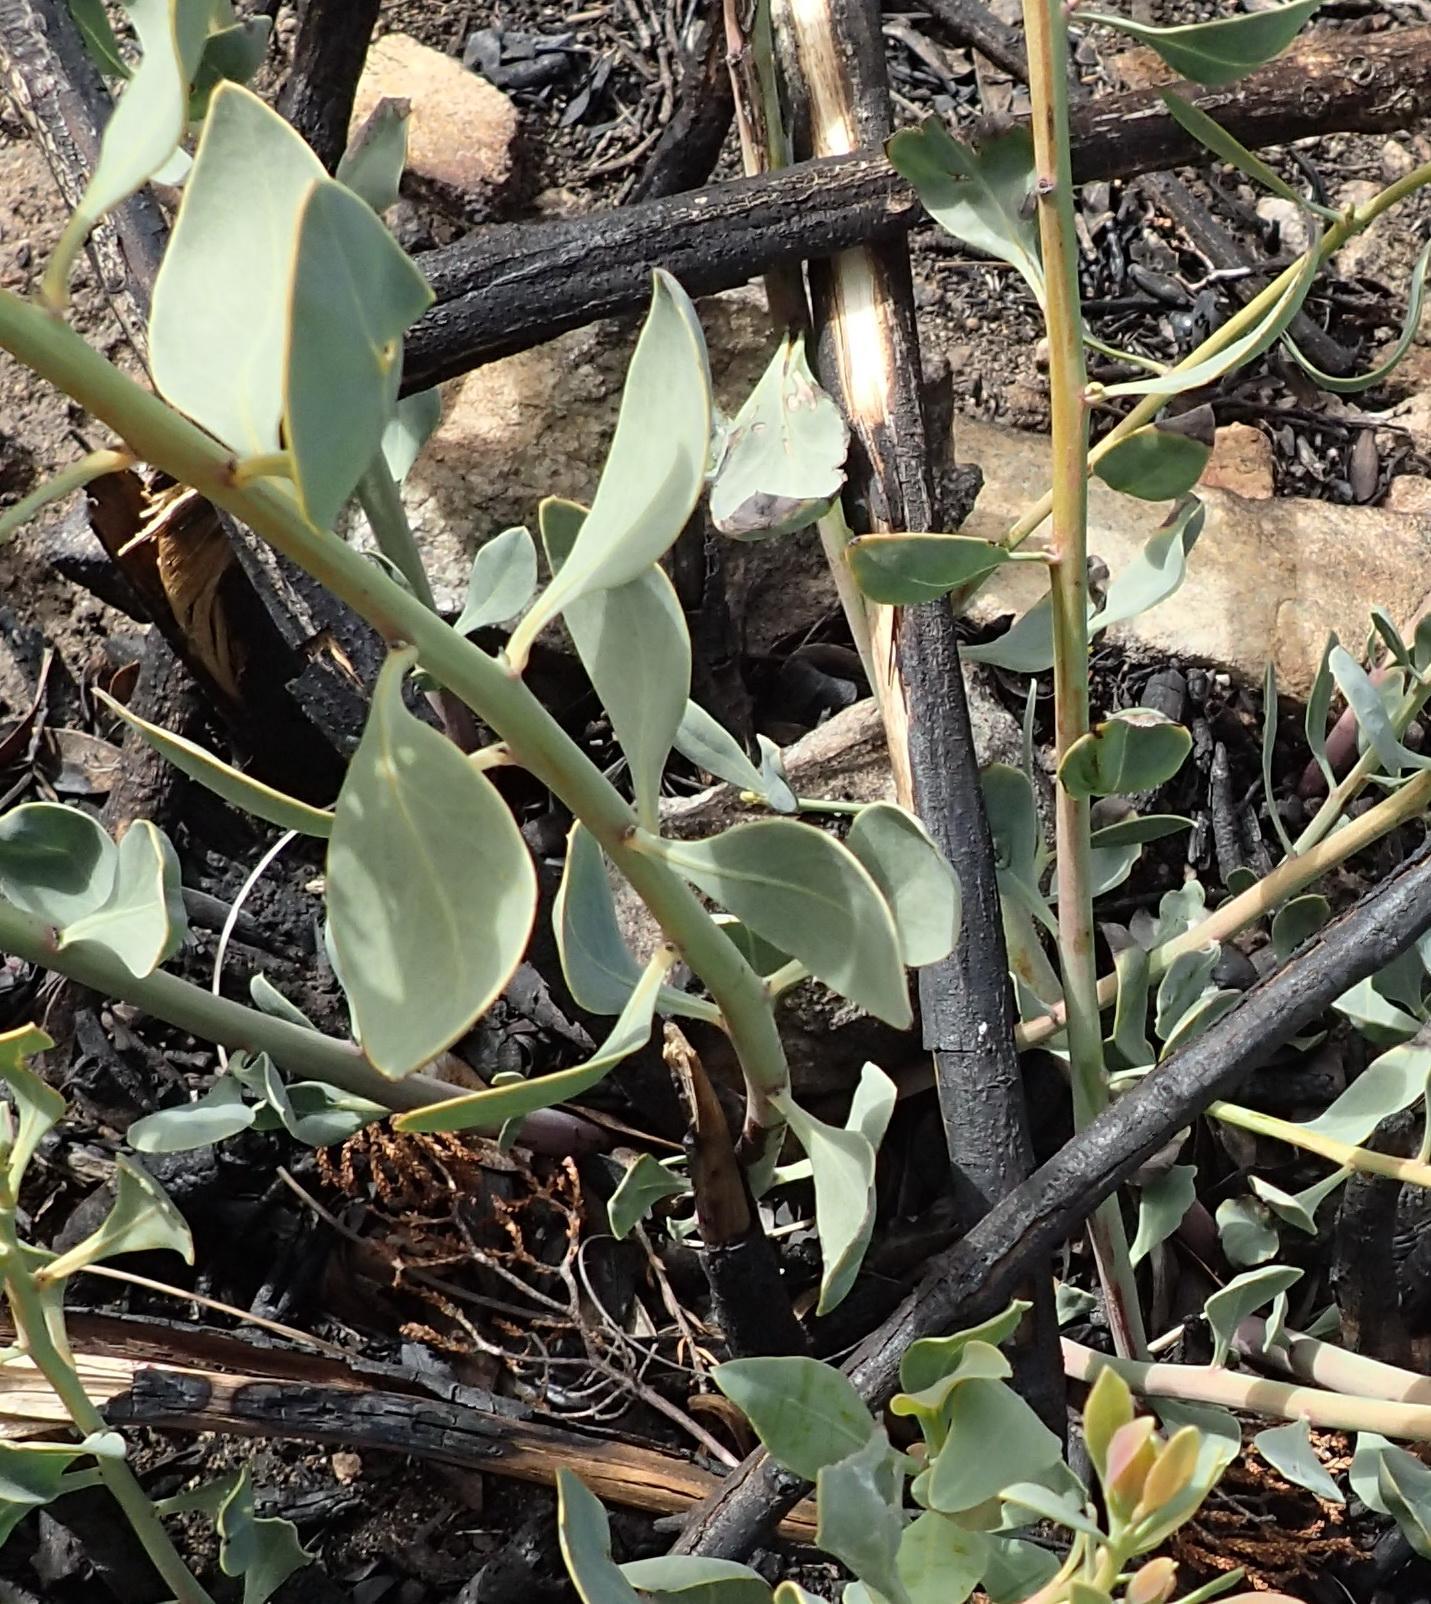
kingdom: Plantae
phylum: Tracheophyta
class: Magnoliopsida
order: Fabales
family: Fabaceae
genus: Rafnia
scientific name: Rafnia elliptica
